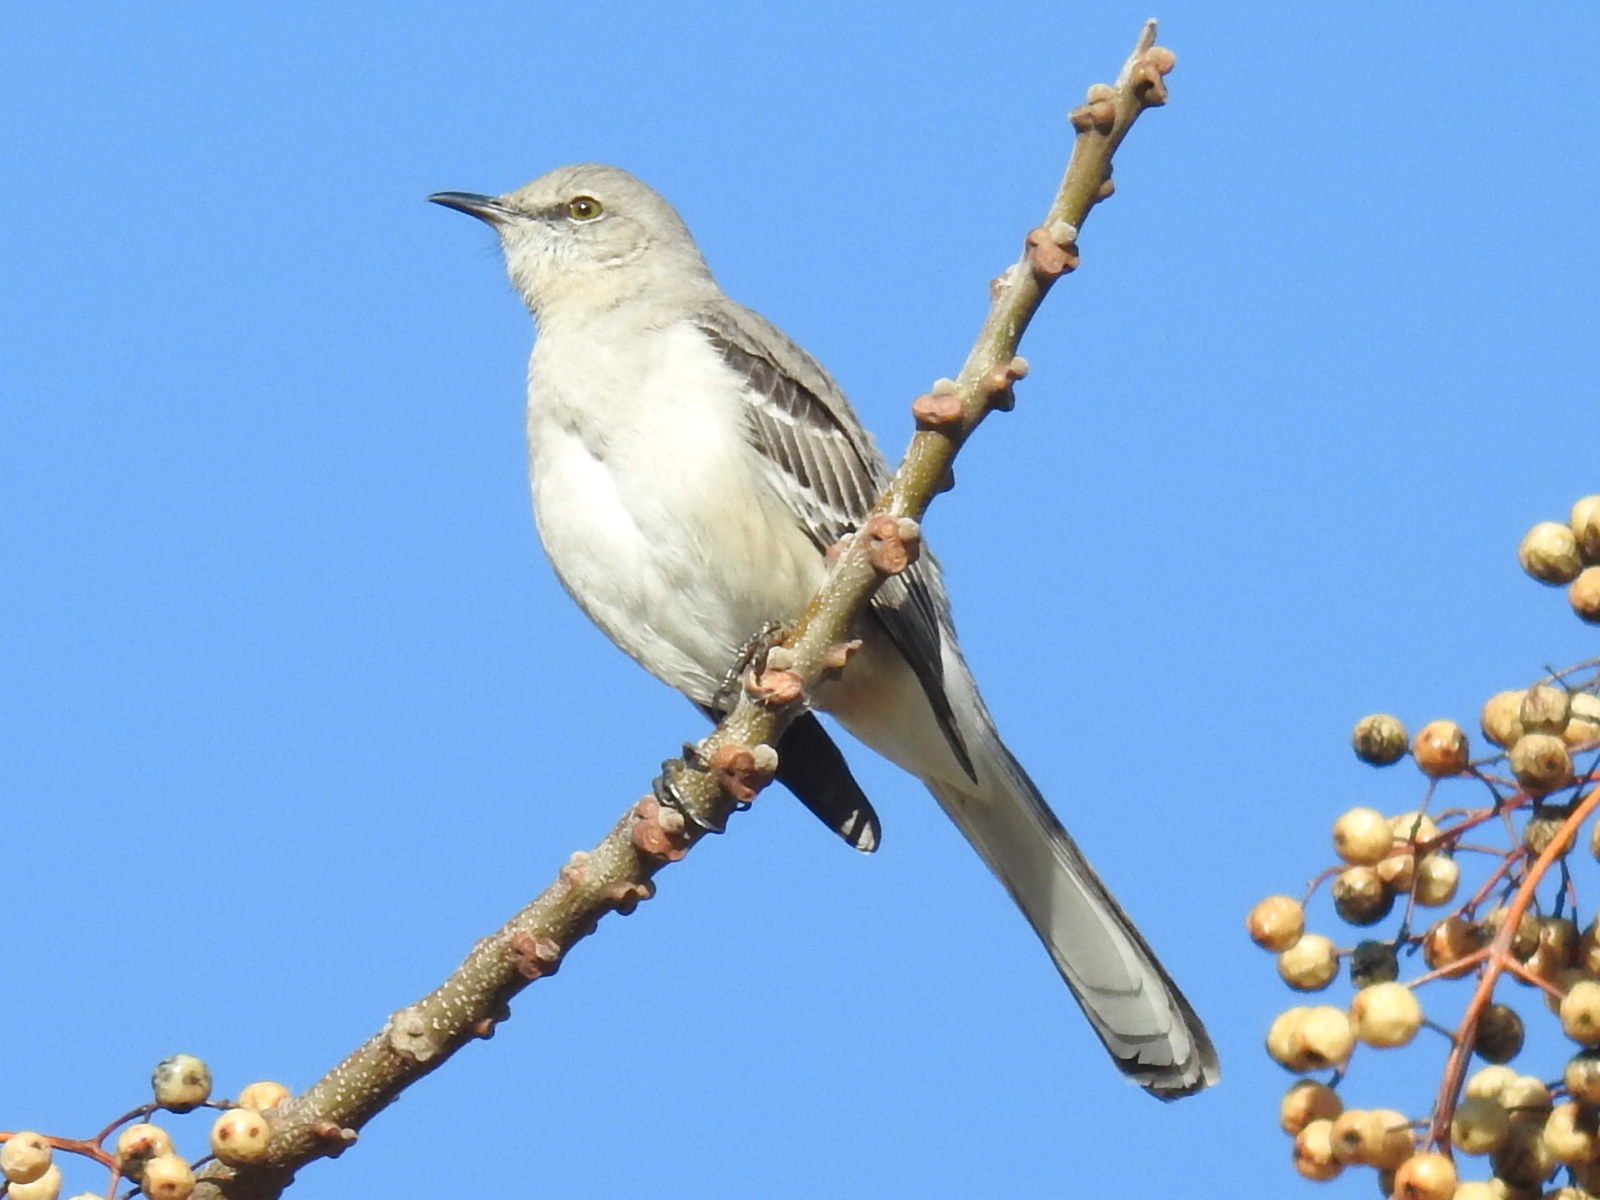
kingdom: Animalia
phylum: Chordata
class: Aves
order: Passeriformes
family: Mimidae
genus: Mimus
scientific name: Mimus polyglottos
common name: Northern mockingbird
